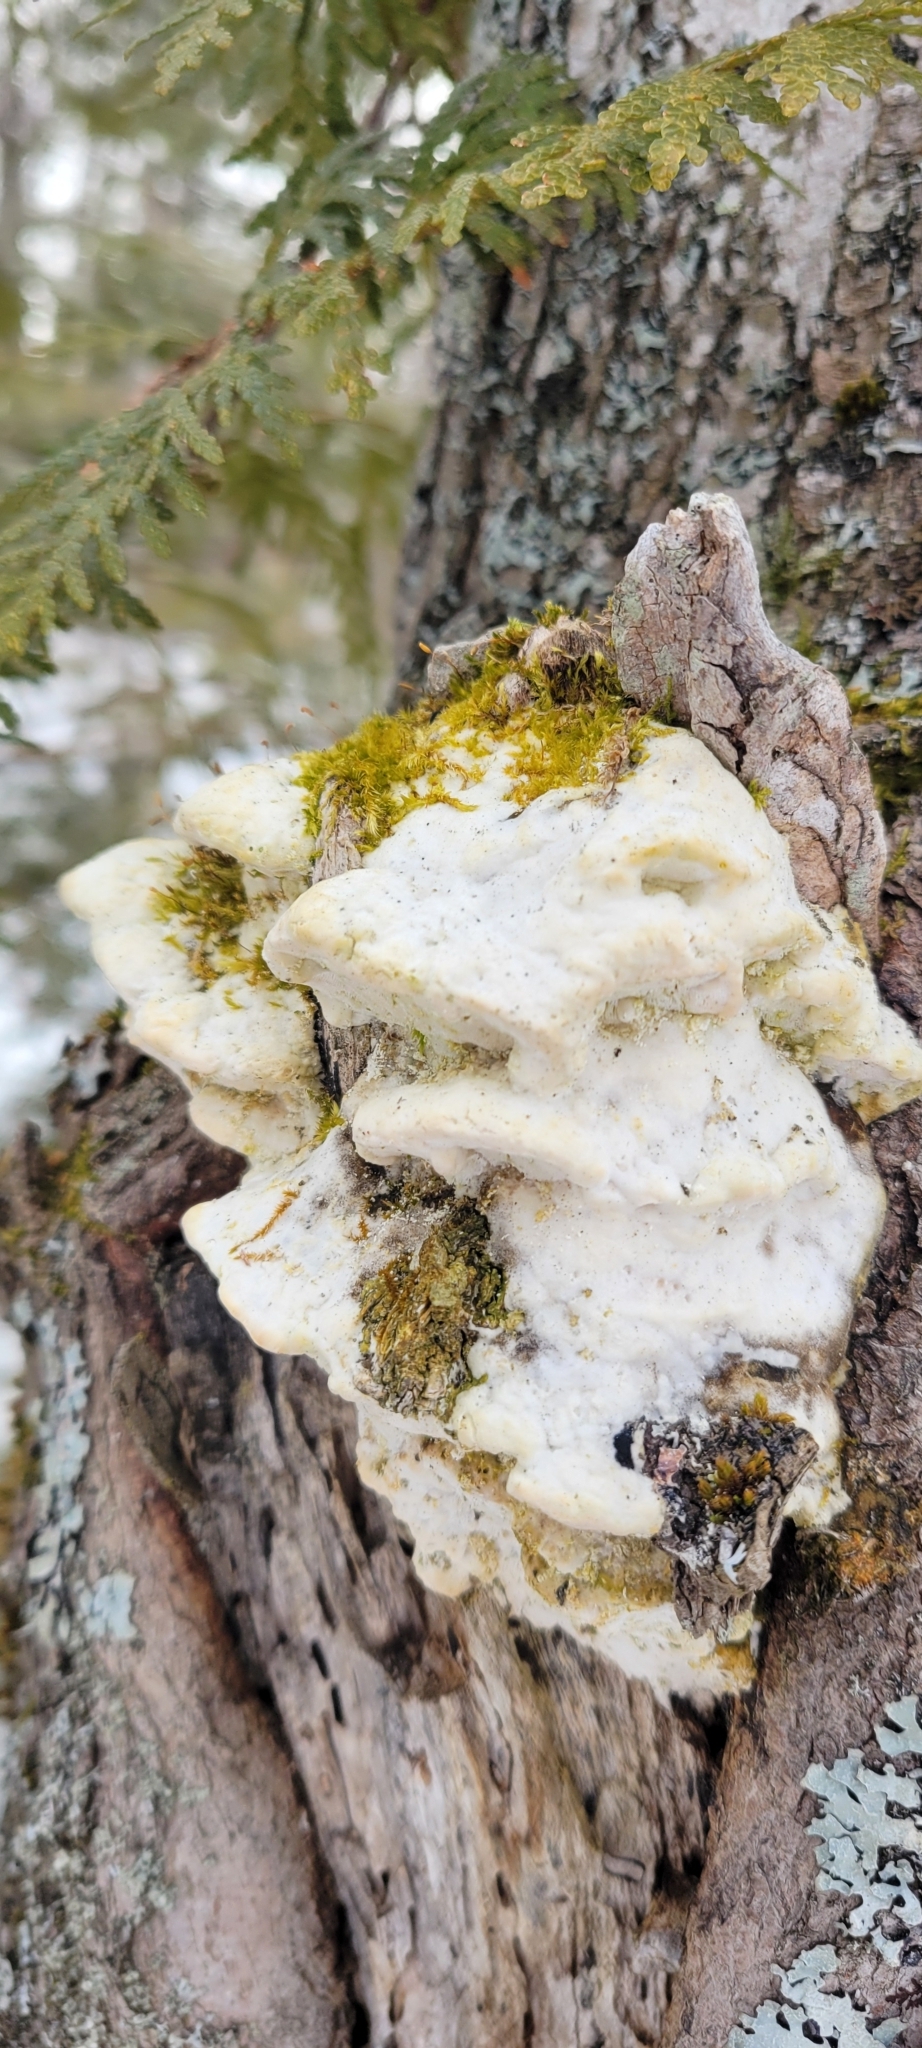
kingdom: Fungi
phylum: Basidiomycota
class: Agaricomycetes
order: Hymenochaetales
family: Oxyporaceae
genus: Oxyporus
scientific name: Oxyporus populinus
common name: Poplar bracket
